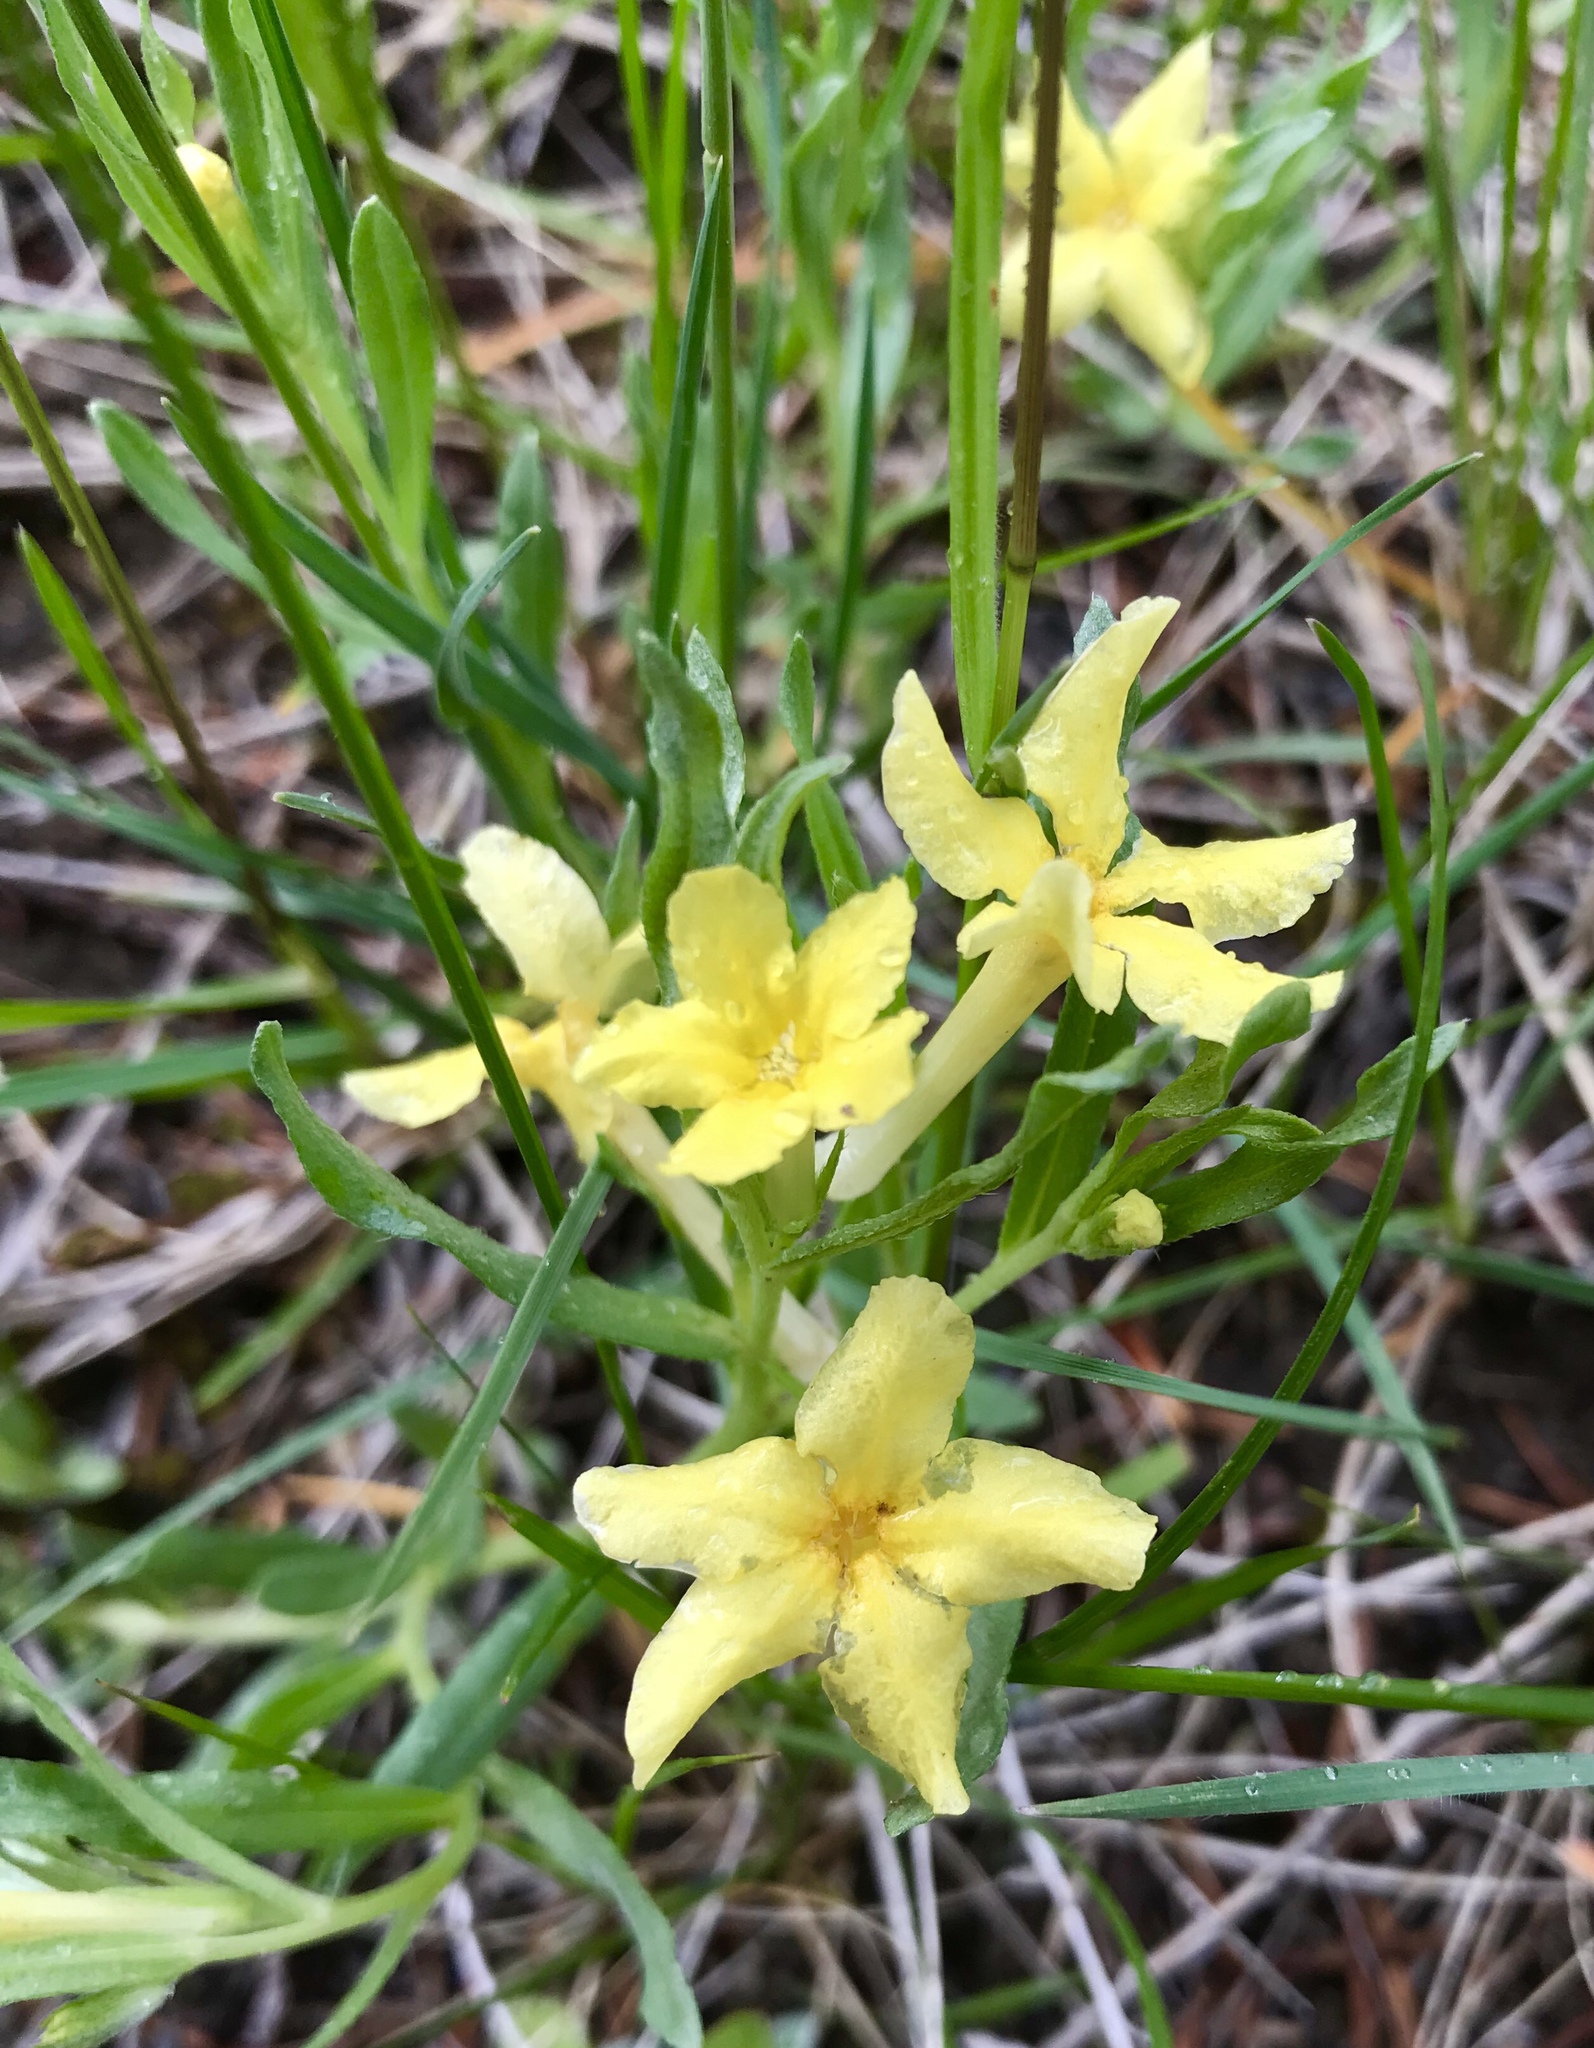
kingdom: Plantae
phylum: Tracheophyta
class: Magnoliopsida
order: Boraginales
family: Boraginaceae
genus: Lithospermum
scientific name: Lithospermum incisum
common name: Fringed gromwell
